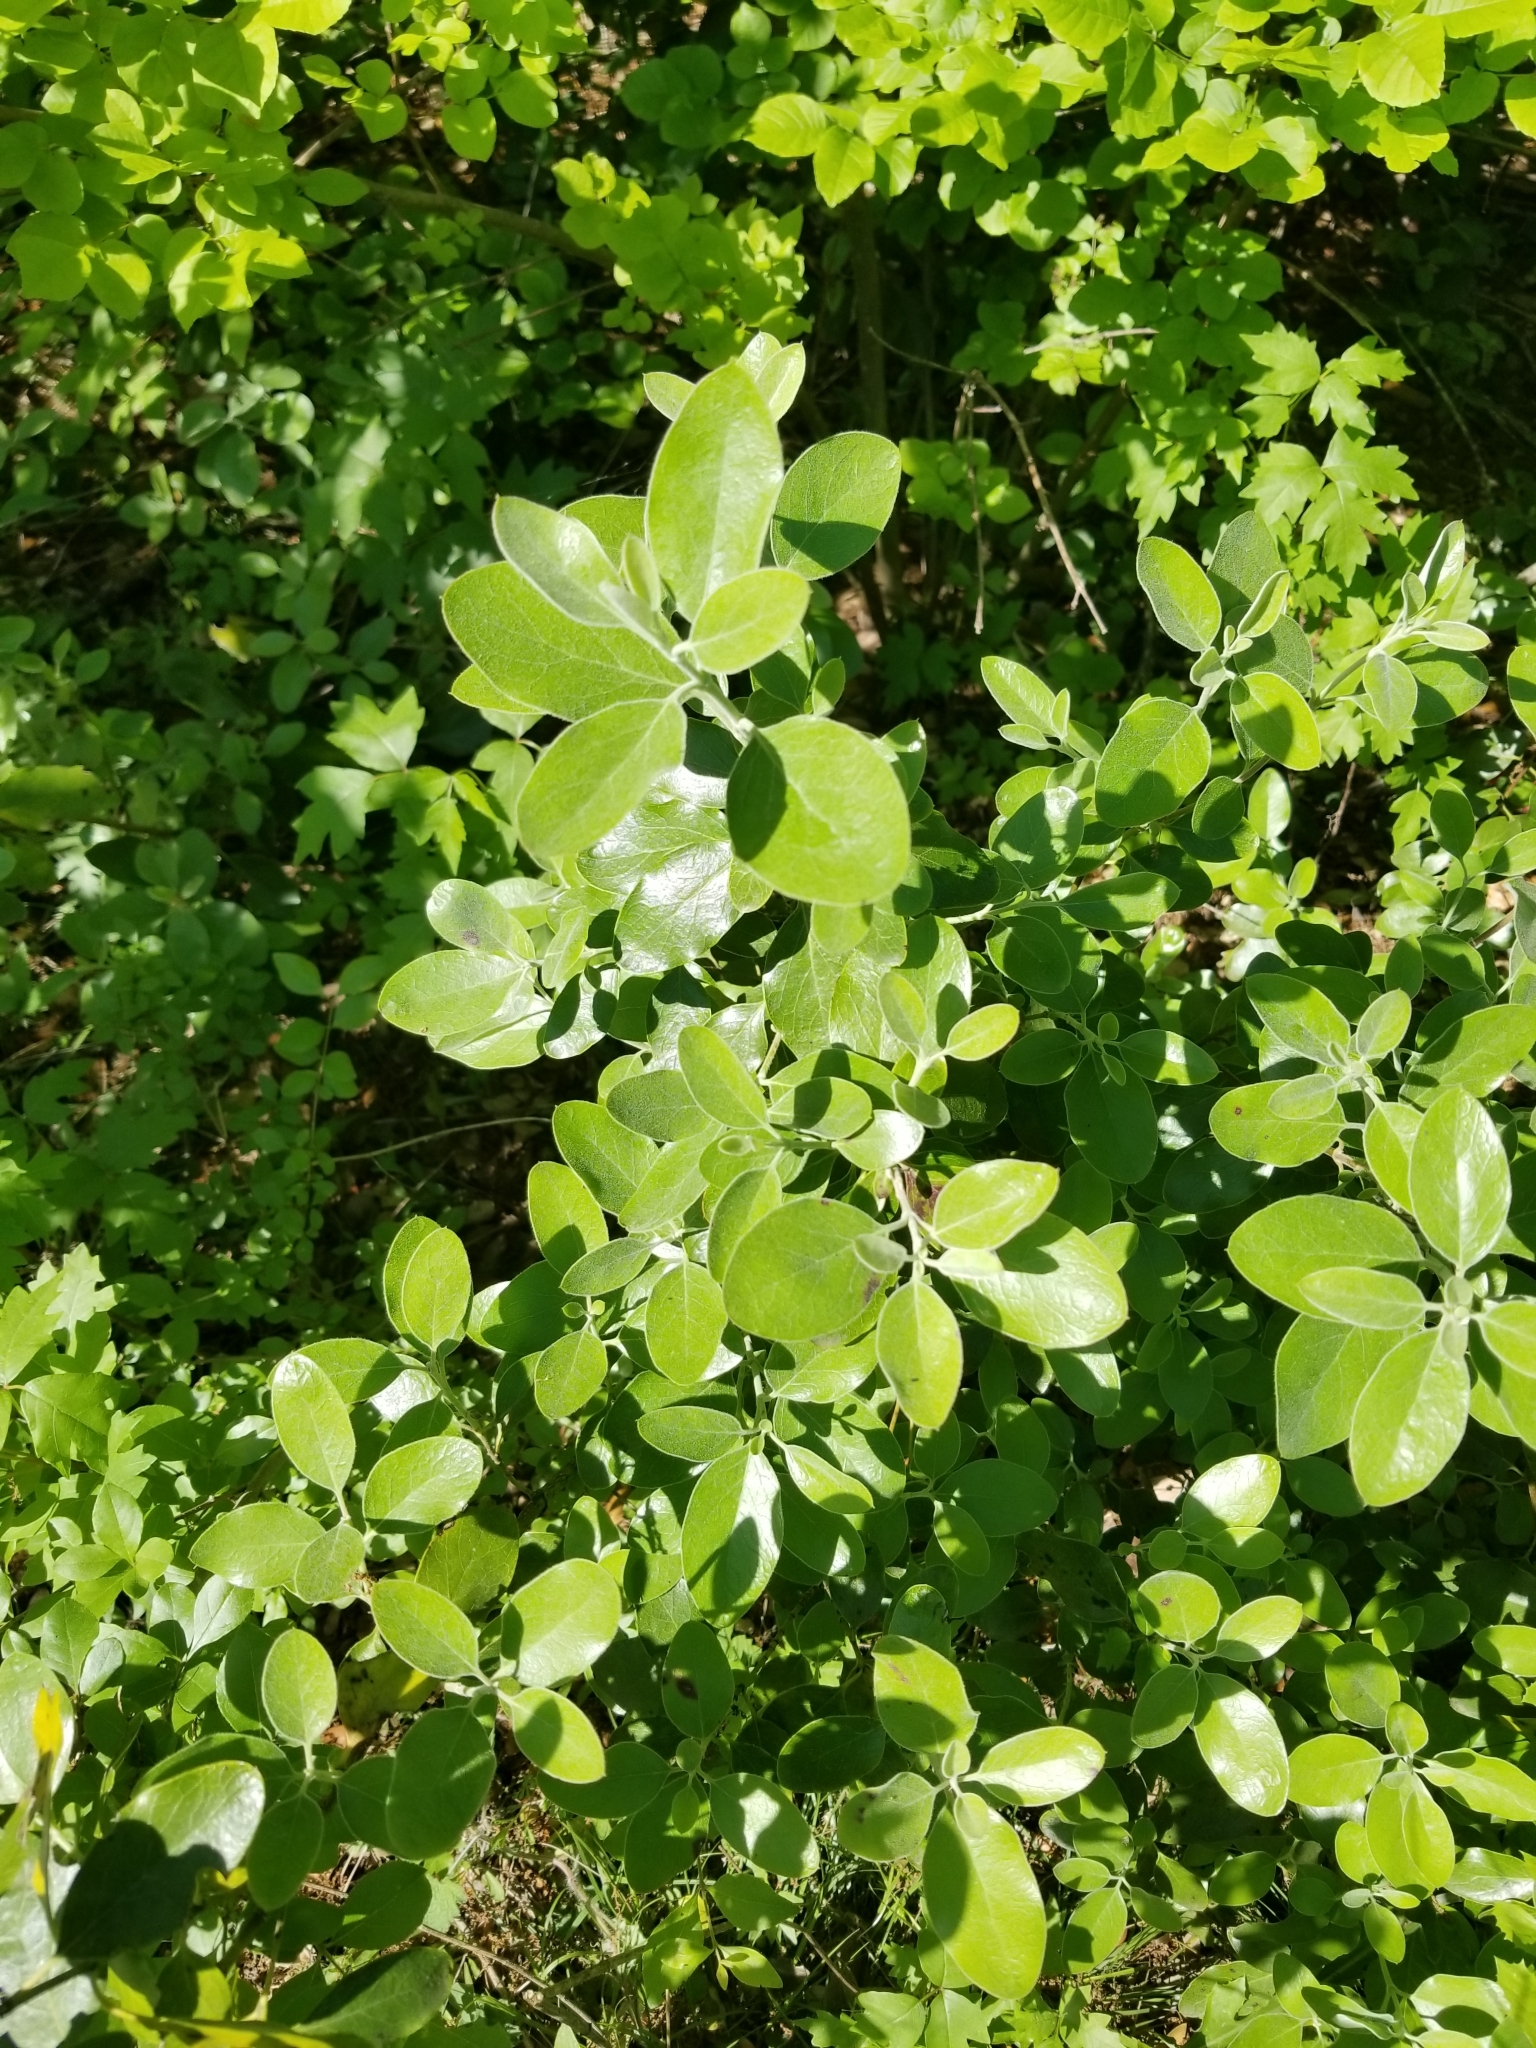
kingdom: Plantae
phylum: Tracheophyta
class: Magnoliopsida
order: Garryales
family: Garryaceae
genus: Garrya
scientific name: Garrya lindheimeri
